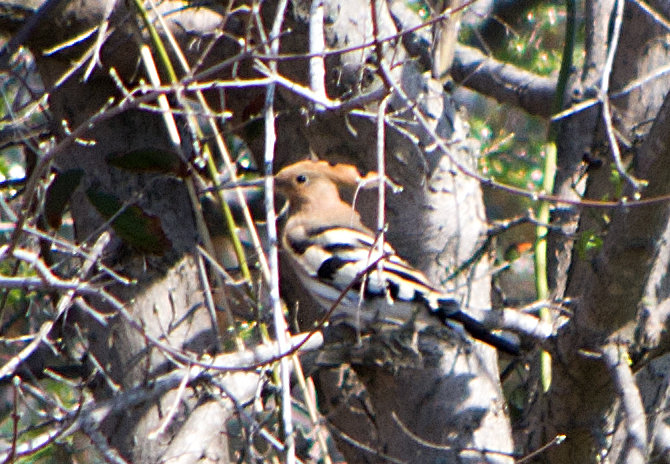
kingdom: Animalia
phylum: Chordata
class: Aves
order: Bucerotiformes
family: Upupidae
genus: Upupa
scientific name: Upupa epops
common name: Eurasian hoopoe
